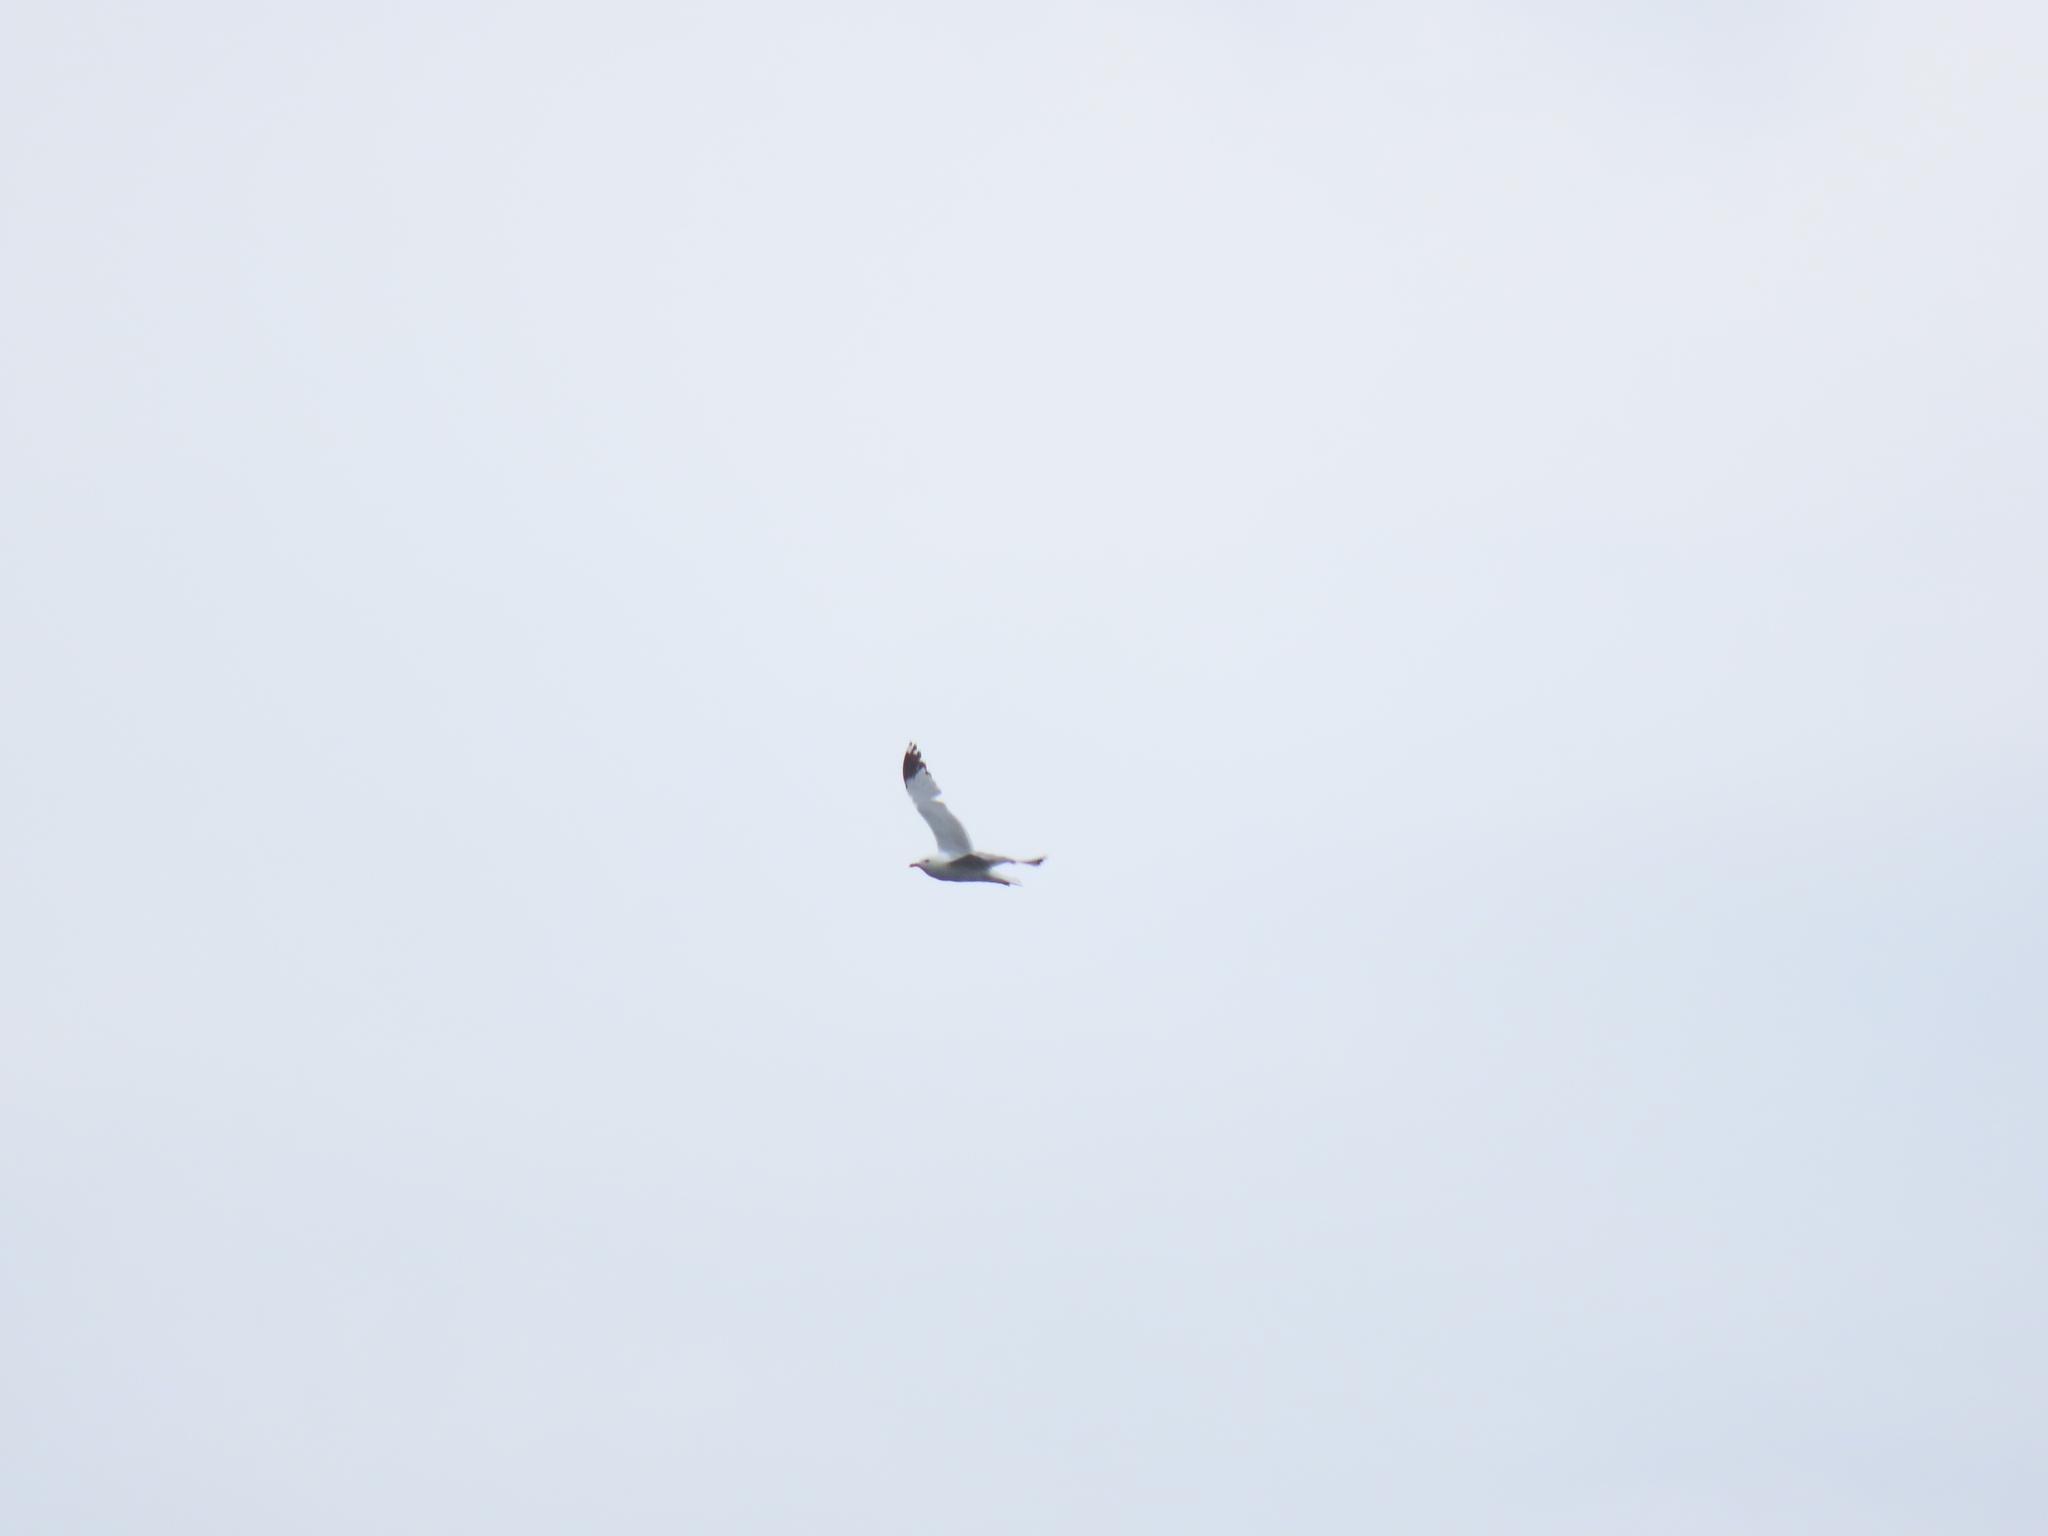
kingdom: Animalia
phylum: Chordata
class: Aves
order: Charadriiformes
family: Laridae
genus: Larus
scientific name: Larus argentatus
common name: Herring gull
